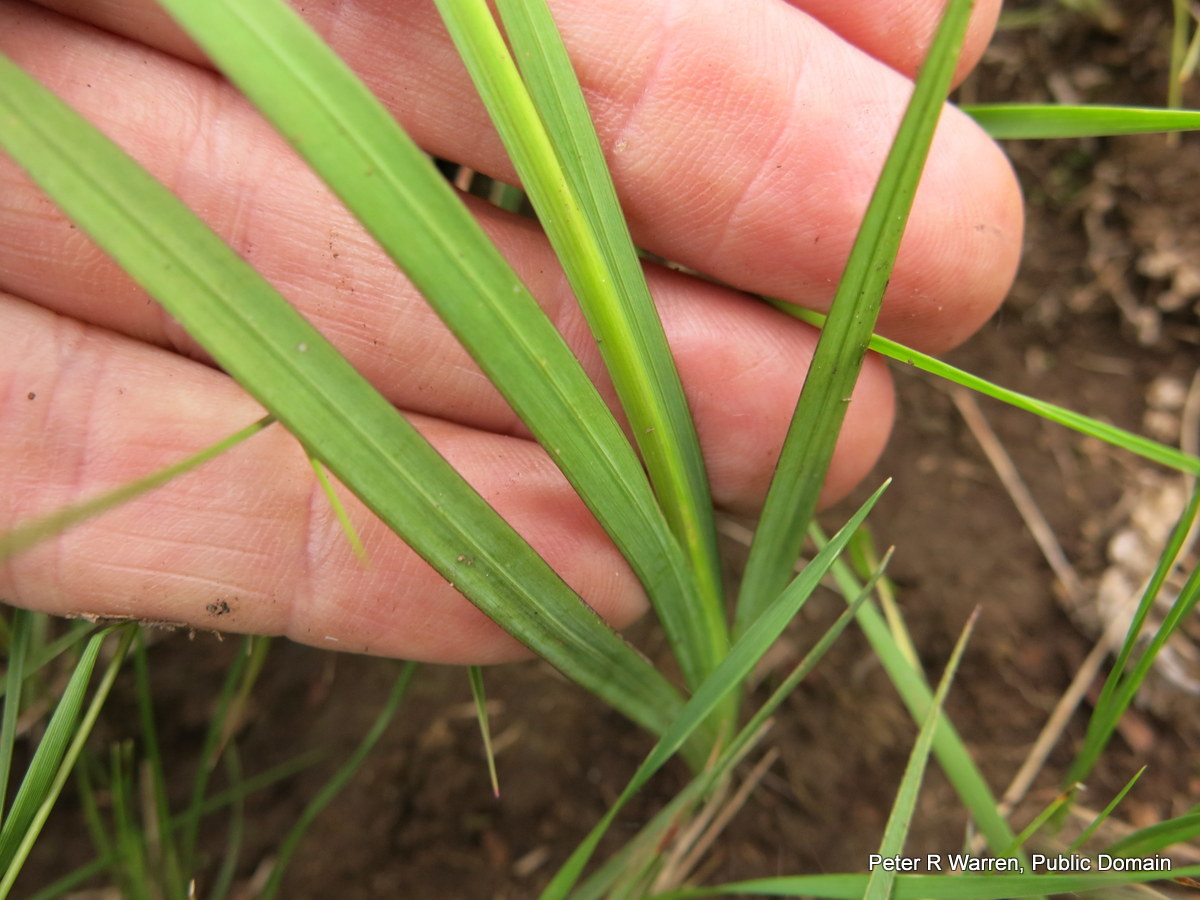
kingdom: Plantae
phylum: Tracheophyta
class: Liliopsida
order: Asparagales
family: Iridaceae
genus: Tritonia
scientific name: Tritonia gladiolaris
